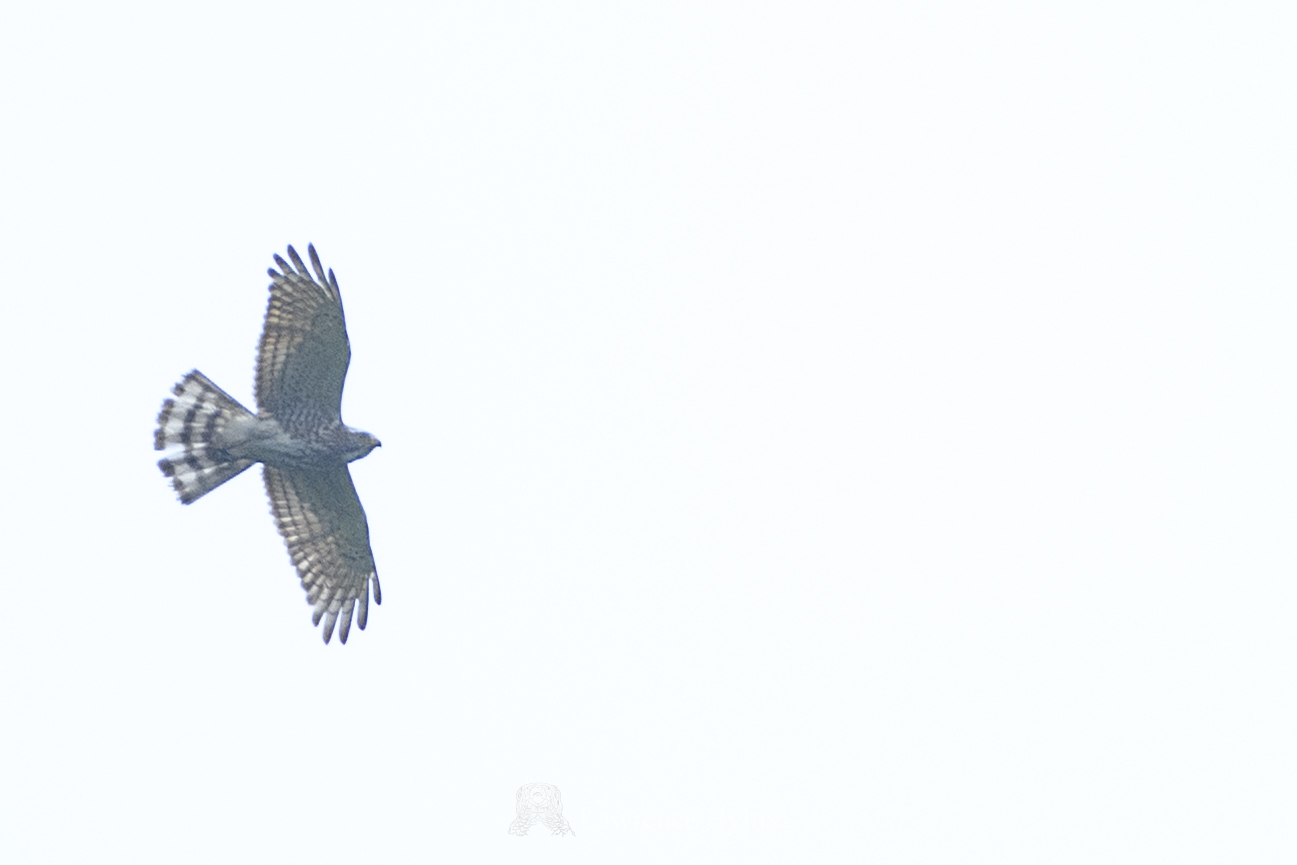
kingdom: Animalia
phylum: Chordata
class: Aves
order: Accipitriformes
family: Accipitridae
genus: Butastur
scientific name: Butastur indicus
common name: Grey-faced buzzard
